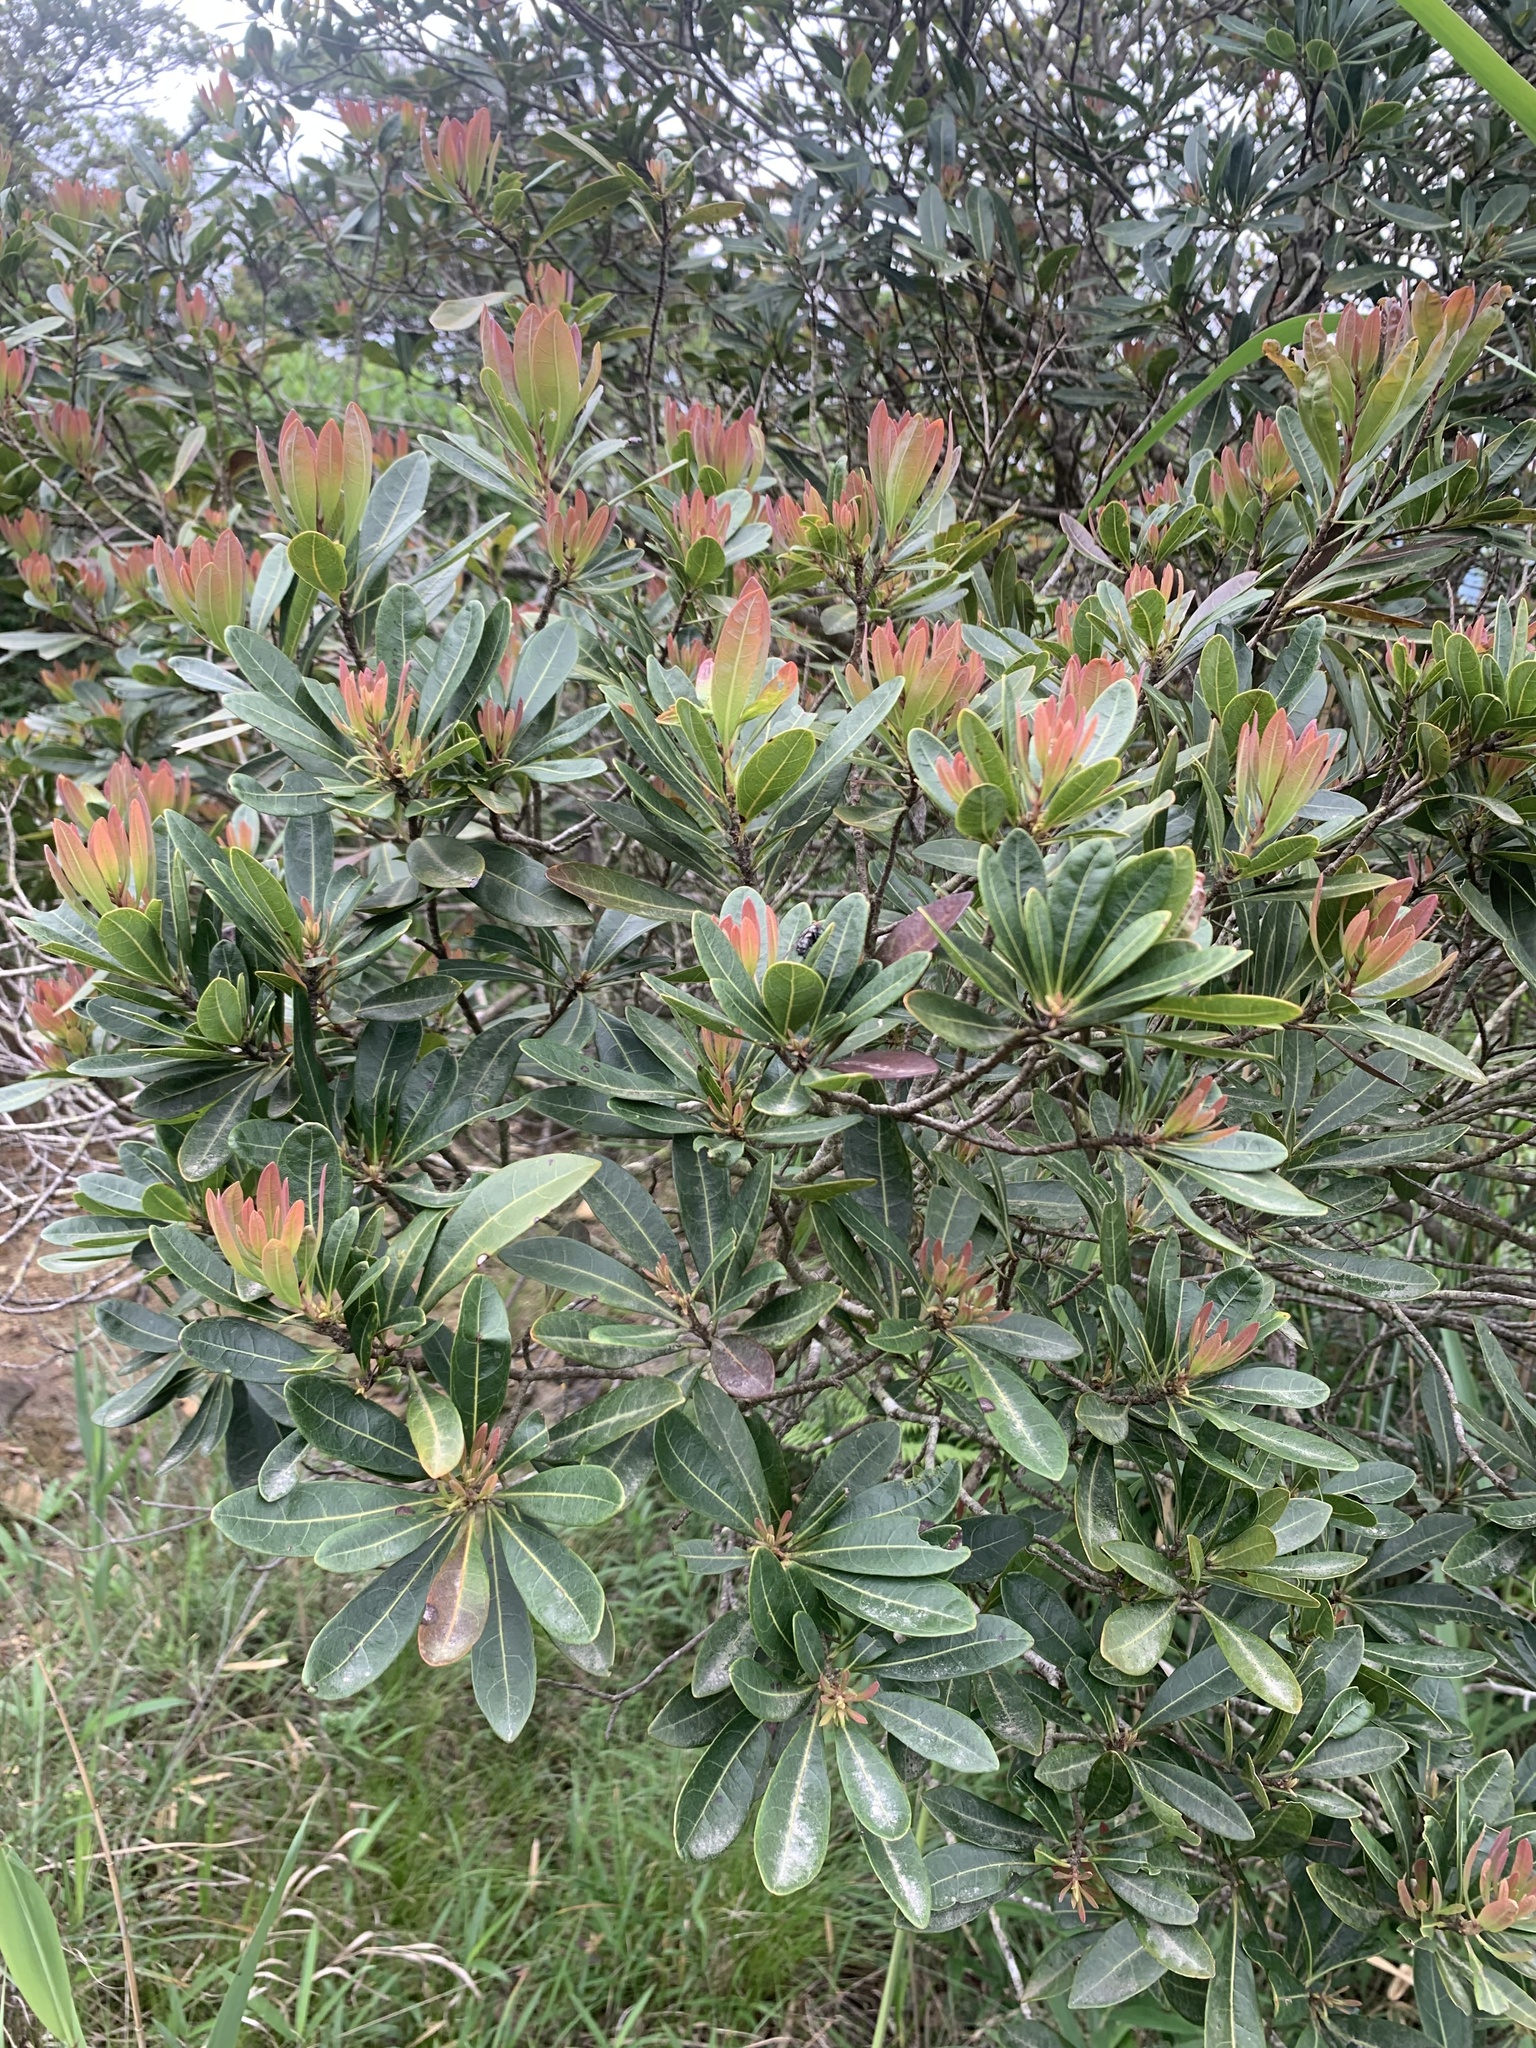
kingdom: Plantae
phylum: Tracheophyta
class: Magnoliopsida
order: Fagales
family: Myricaceae
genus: Morella
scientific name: Morella rubra
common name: Red bayberry
